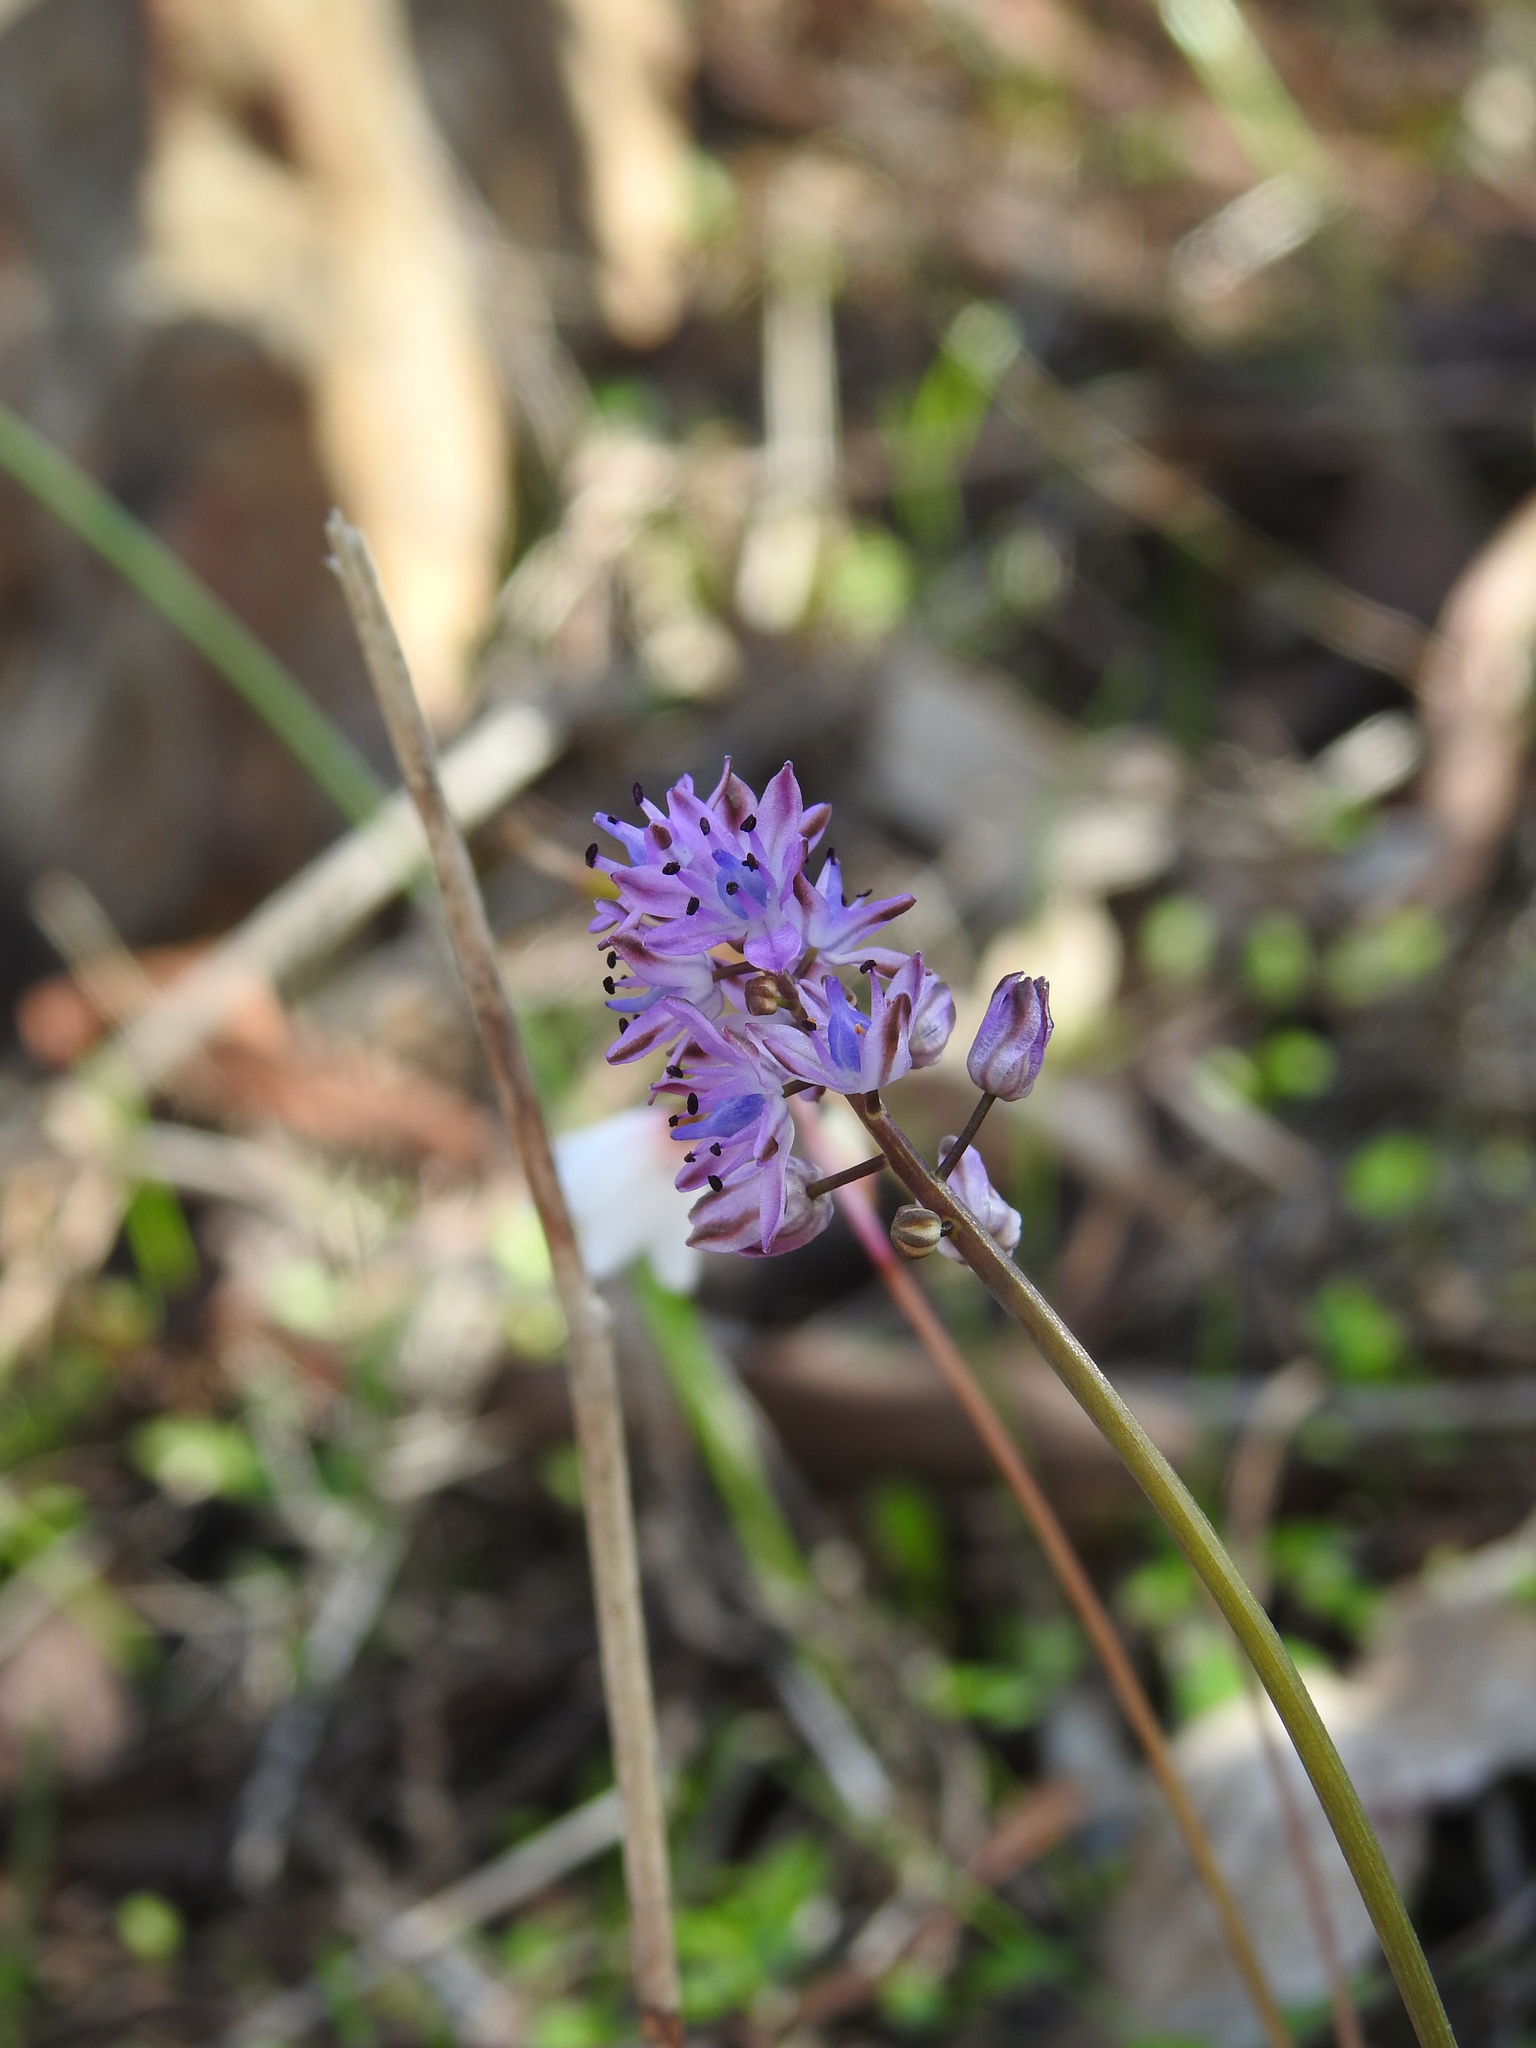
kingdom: Plantae
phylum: Tracheophyta
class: Liliopsida
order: Asparagales
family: Asparagaceae
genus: Prospero
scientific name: Prospero autumnale
